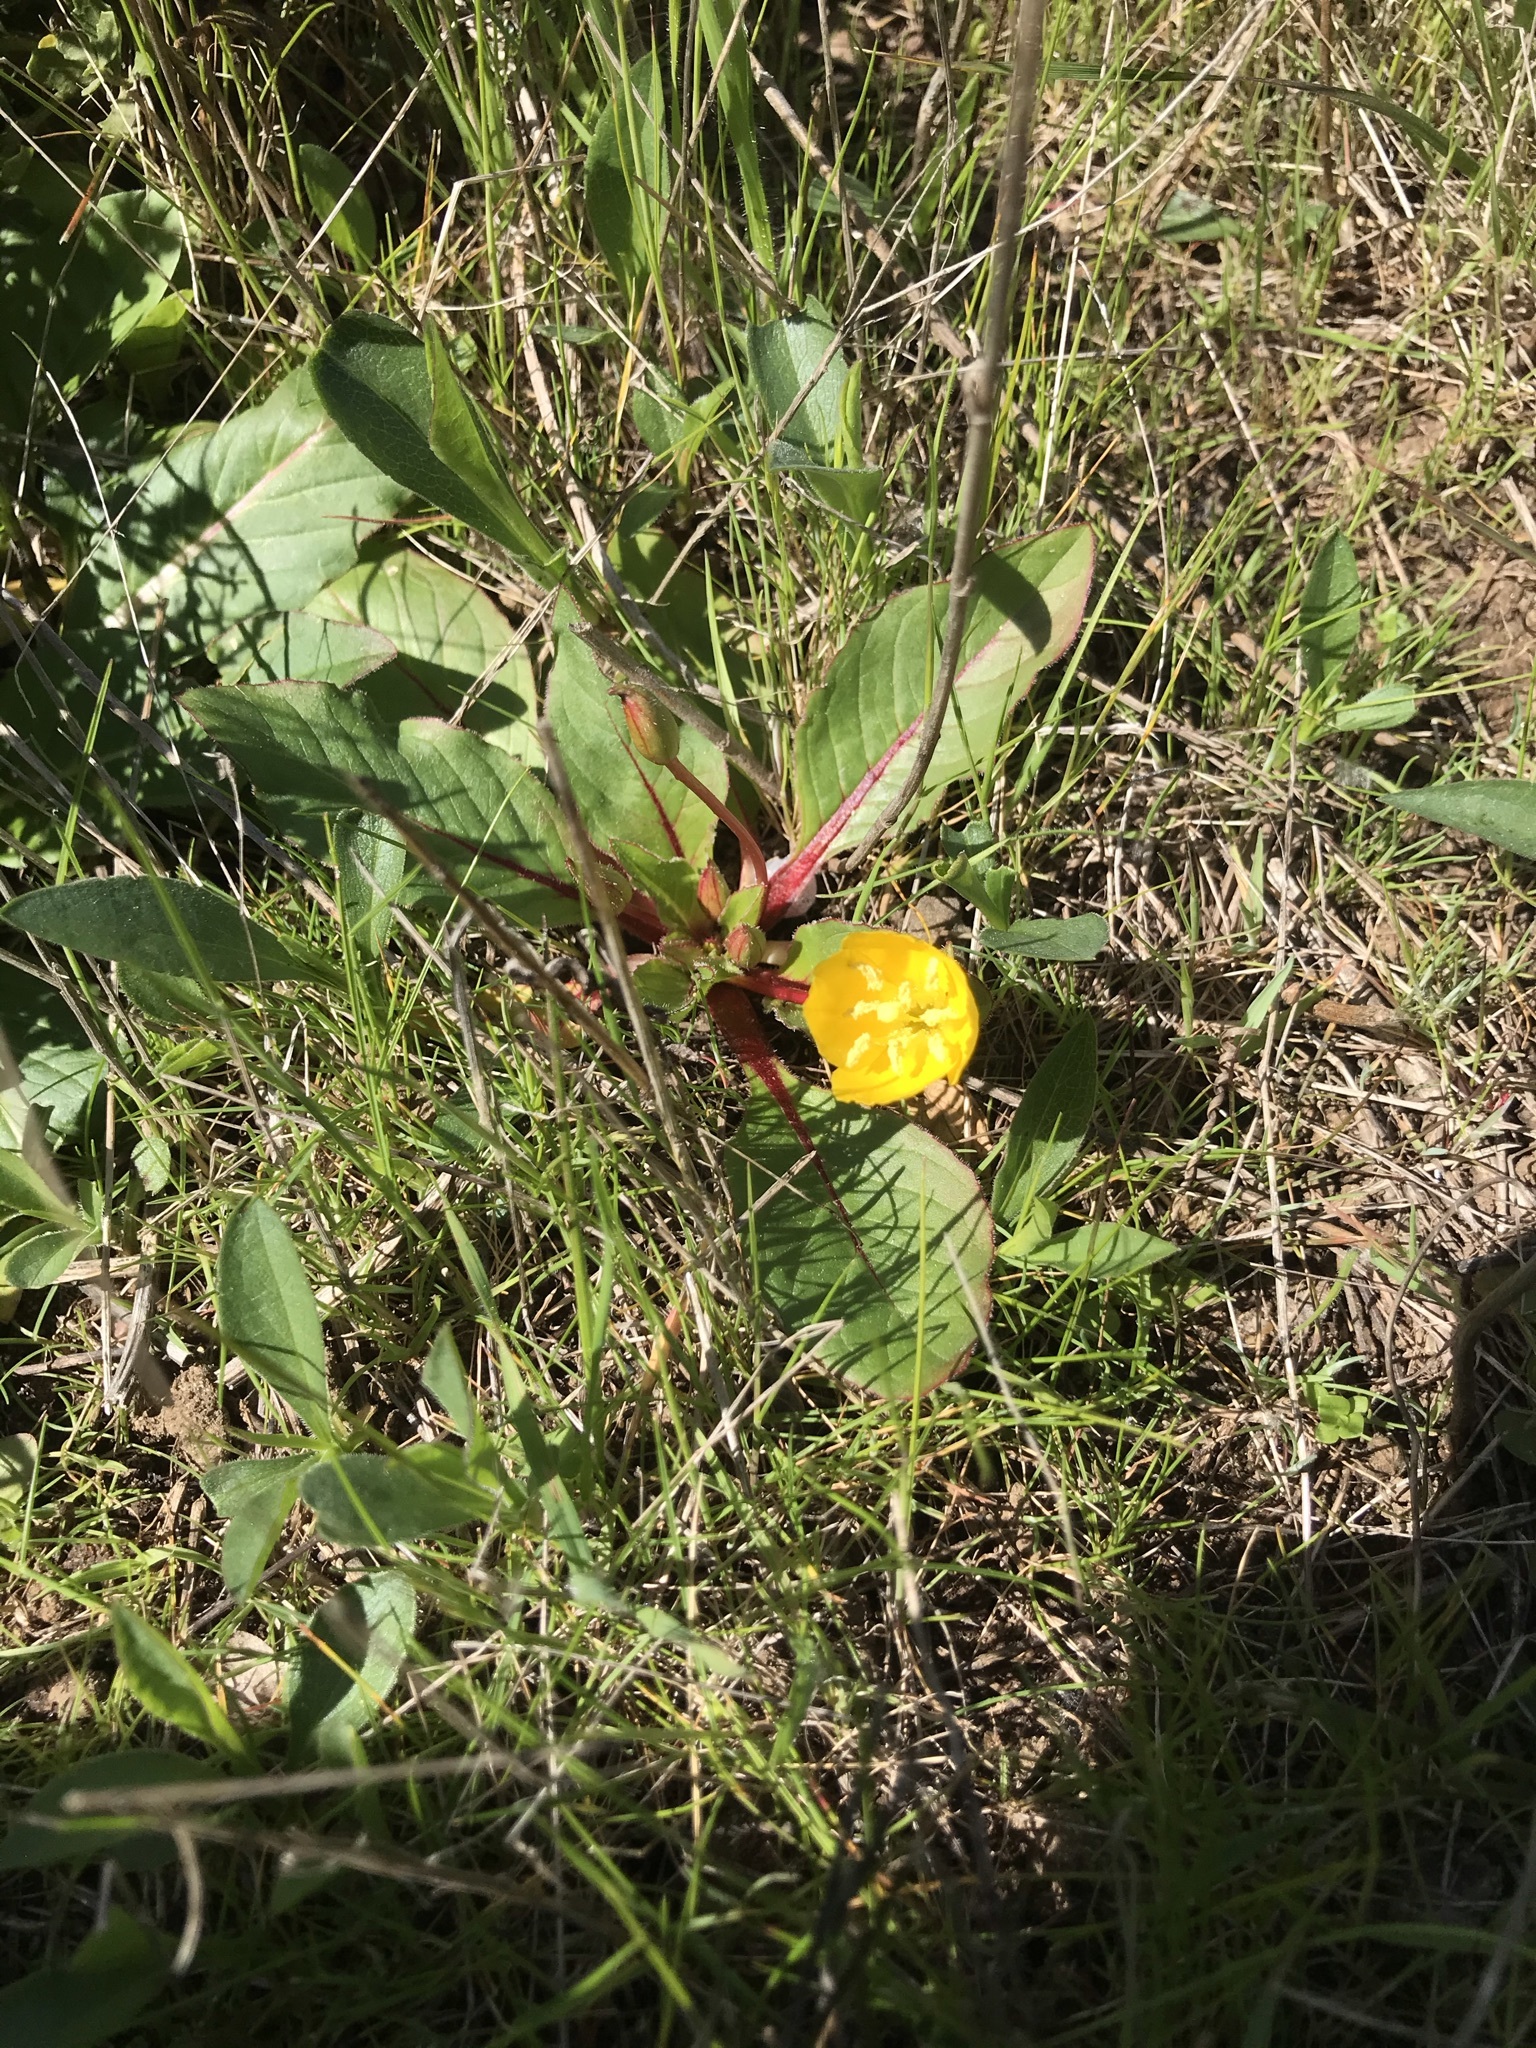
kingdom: Plantae
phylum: Tracheophyta
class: Magnoliopsida
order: Myrtales
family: Onagraceae
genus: Taraxia
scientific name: Taraxia ovata
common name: Goldeneggs
